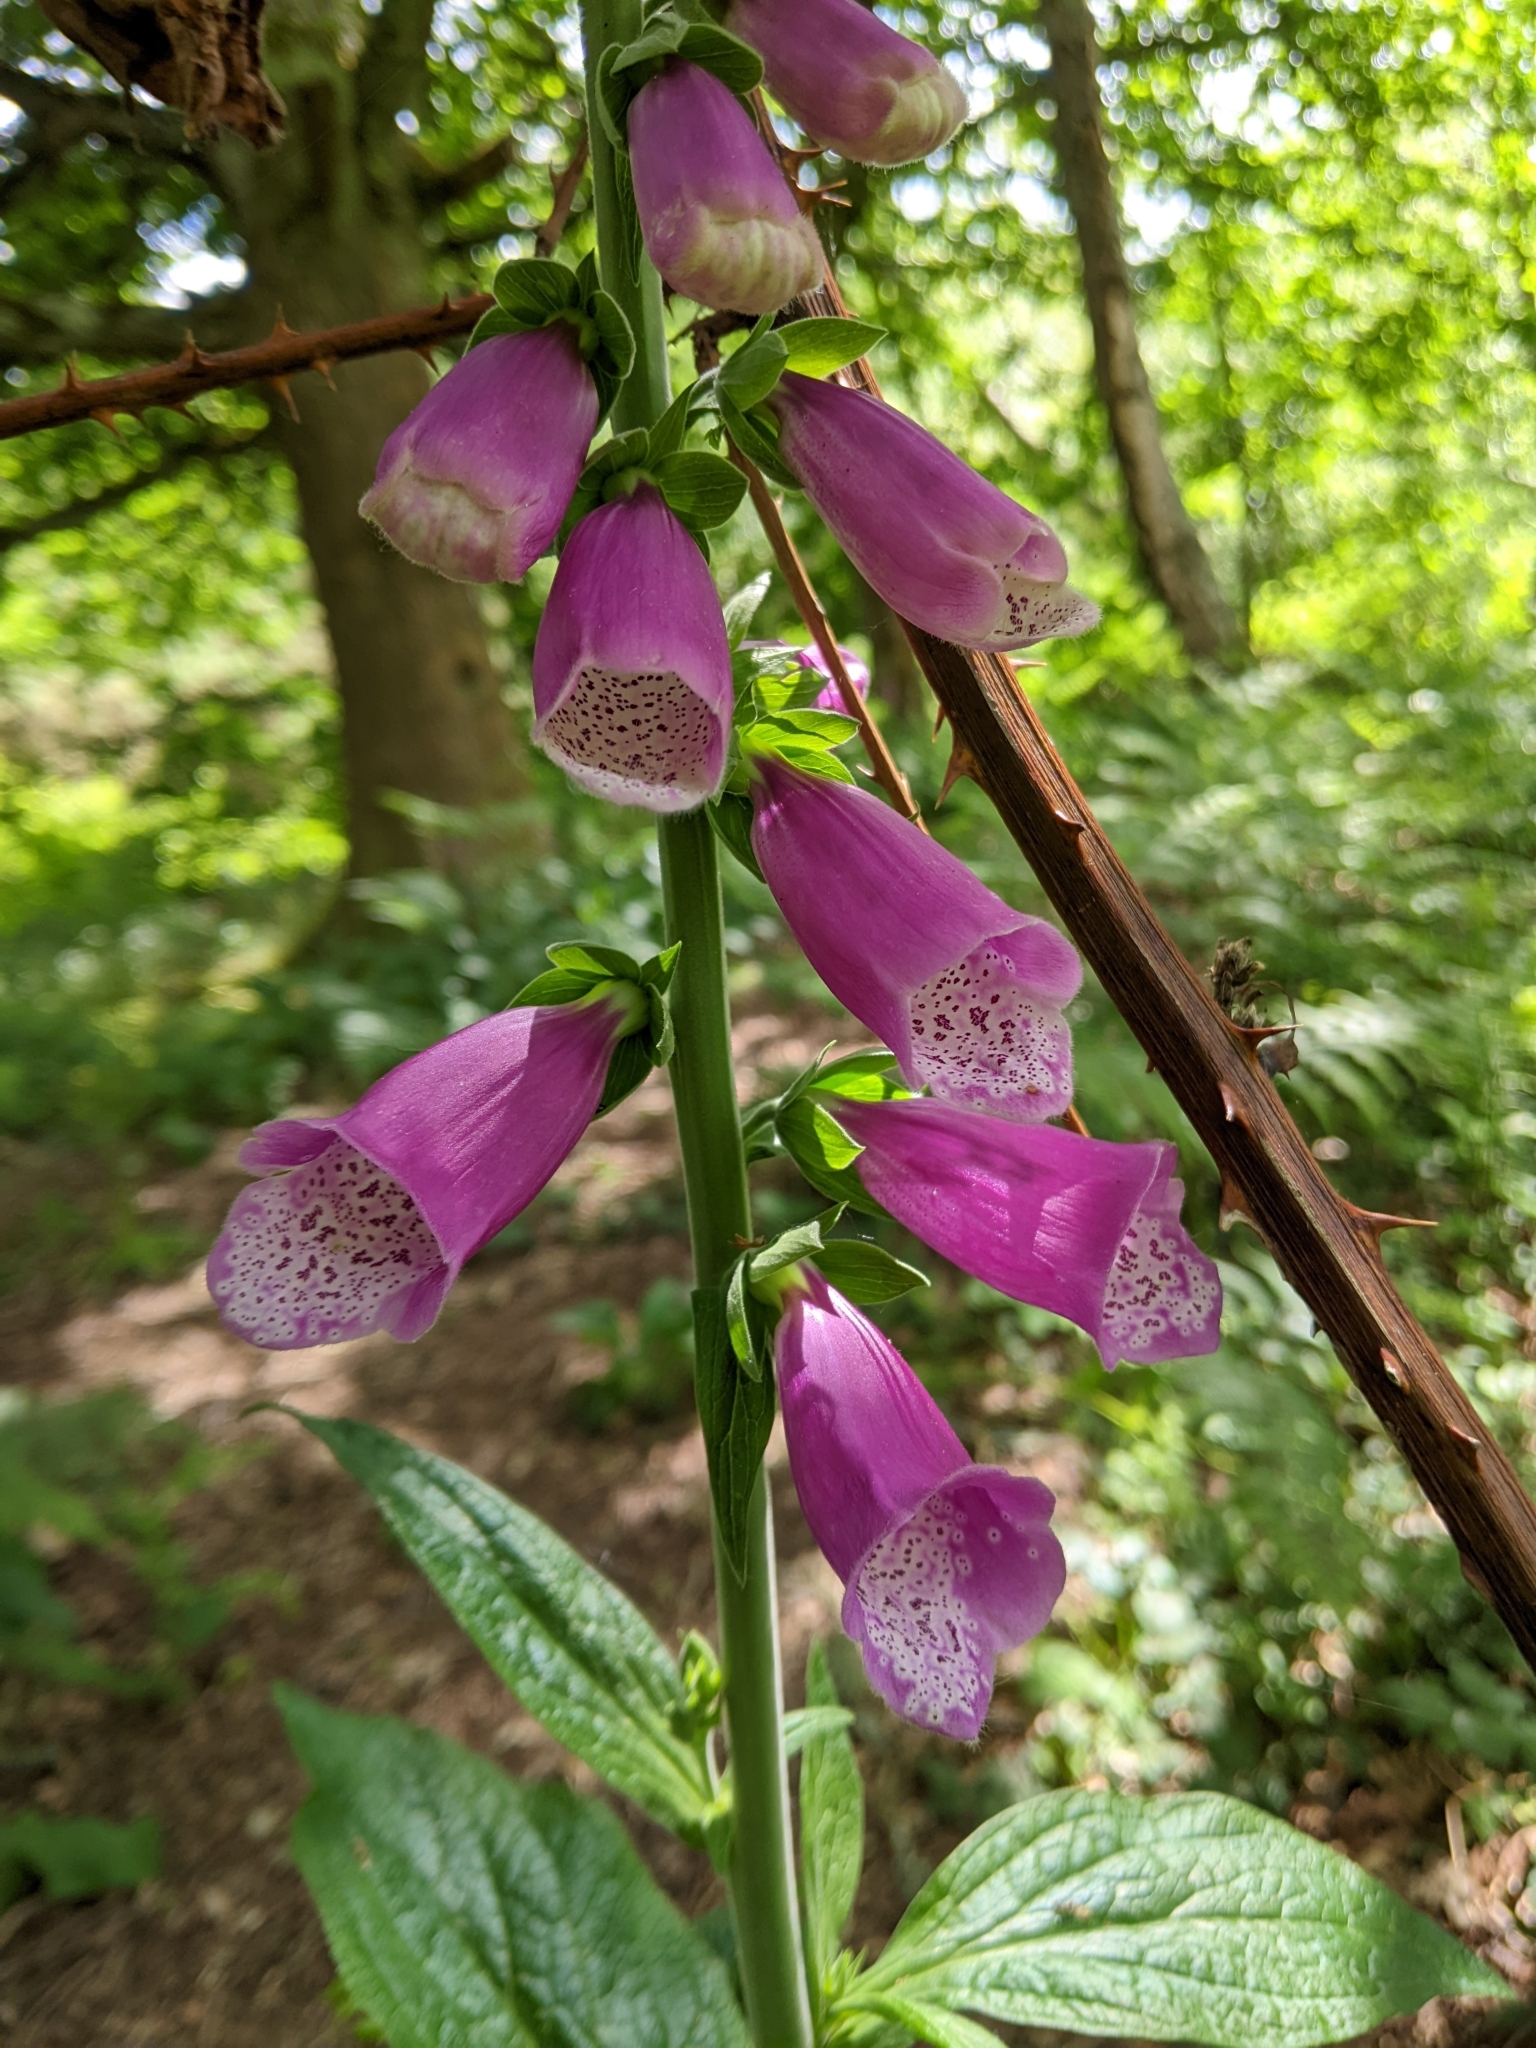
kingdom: Plantae
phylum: Tracheophyta
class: Magnoliopsida
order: Lamiales
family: Plantaginaceae
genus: Digitalis
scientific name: Digitalis purpurea
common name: Foxglove
